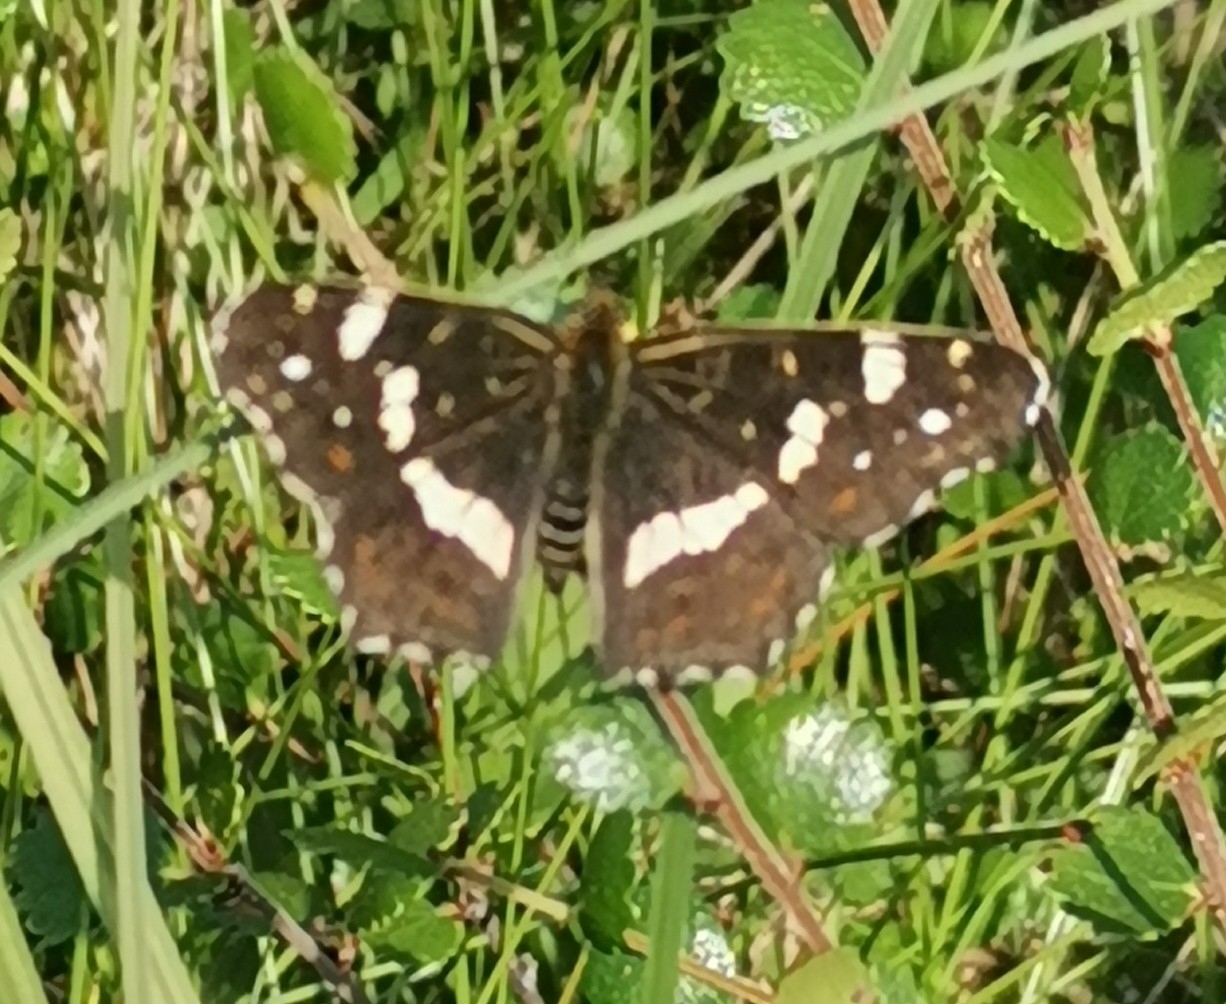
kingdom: Animalia
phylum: Arthropoda
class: Insecta
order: Lepidoptera
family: Nymphalidae
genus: Araschnia
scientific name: Araschnia levana
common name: Map butterfly
